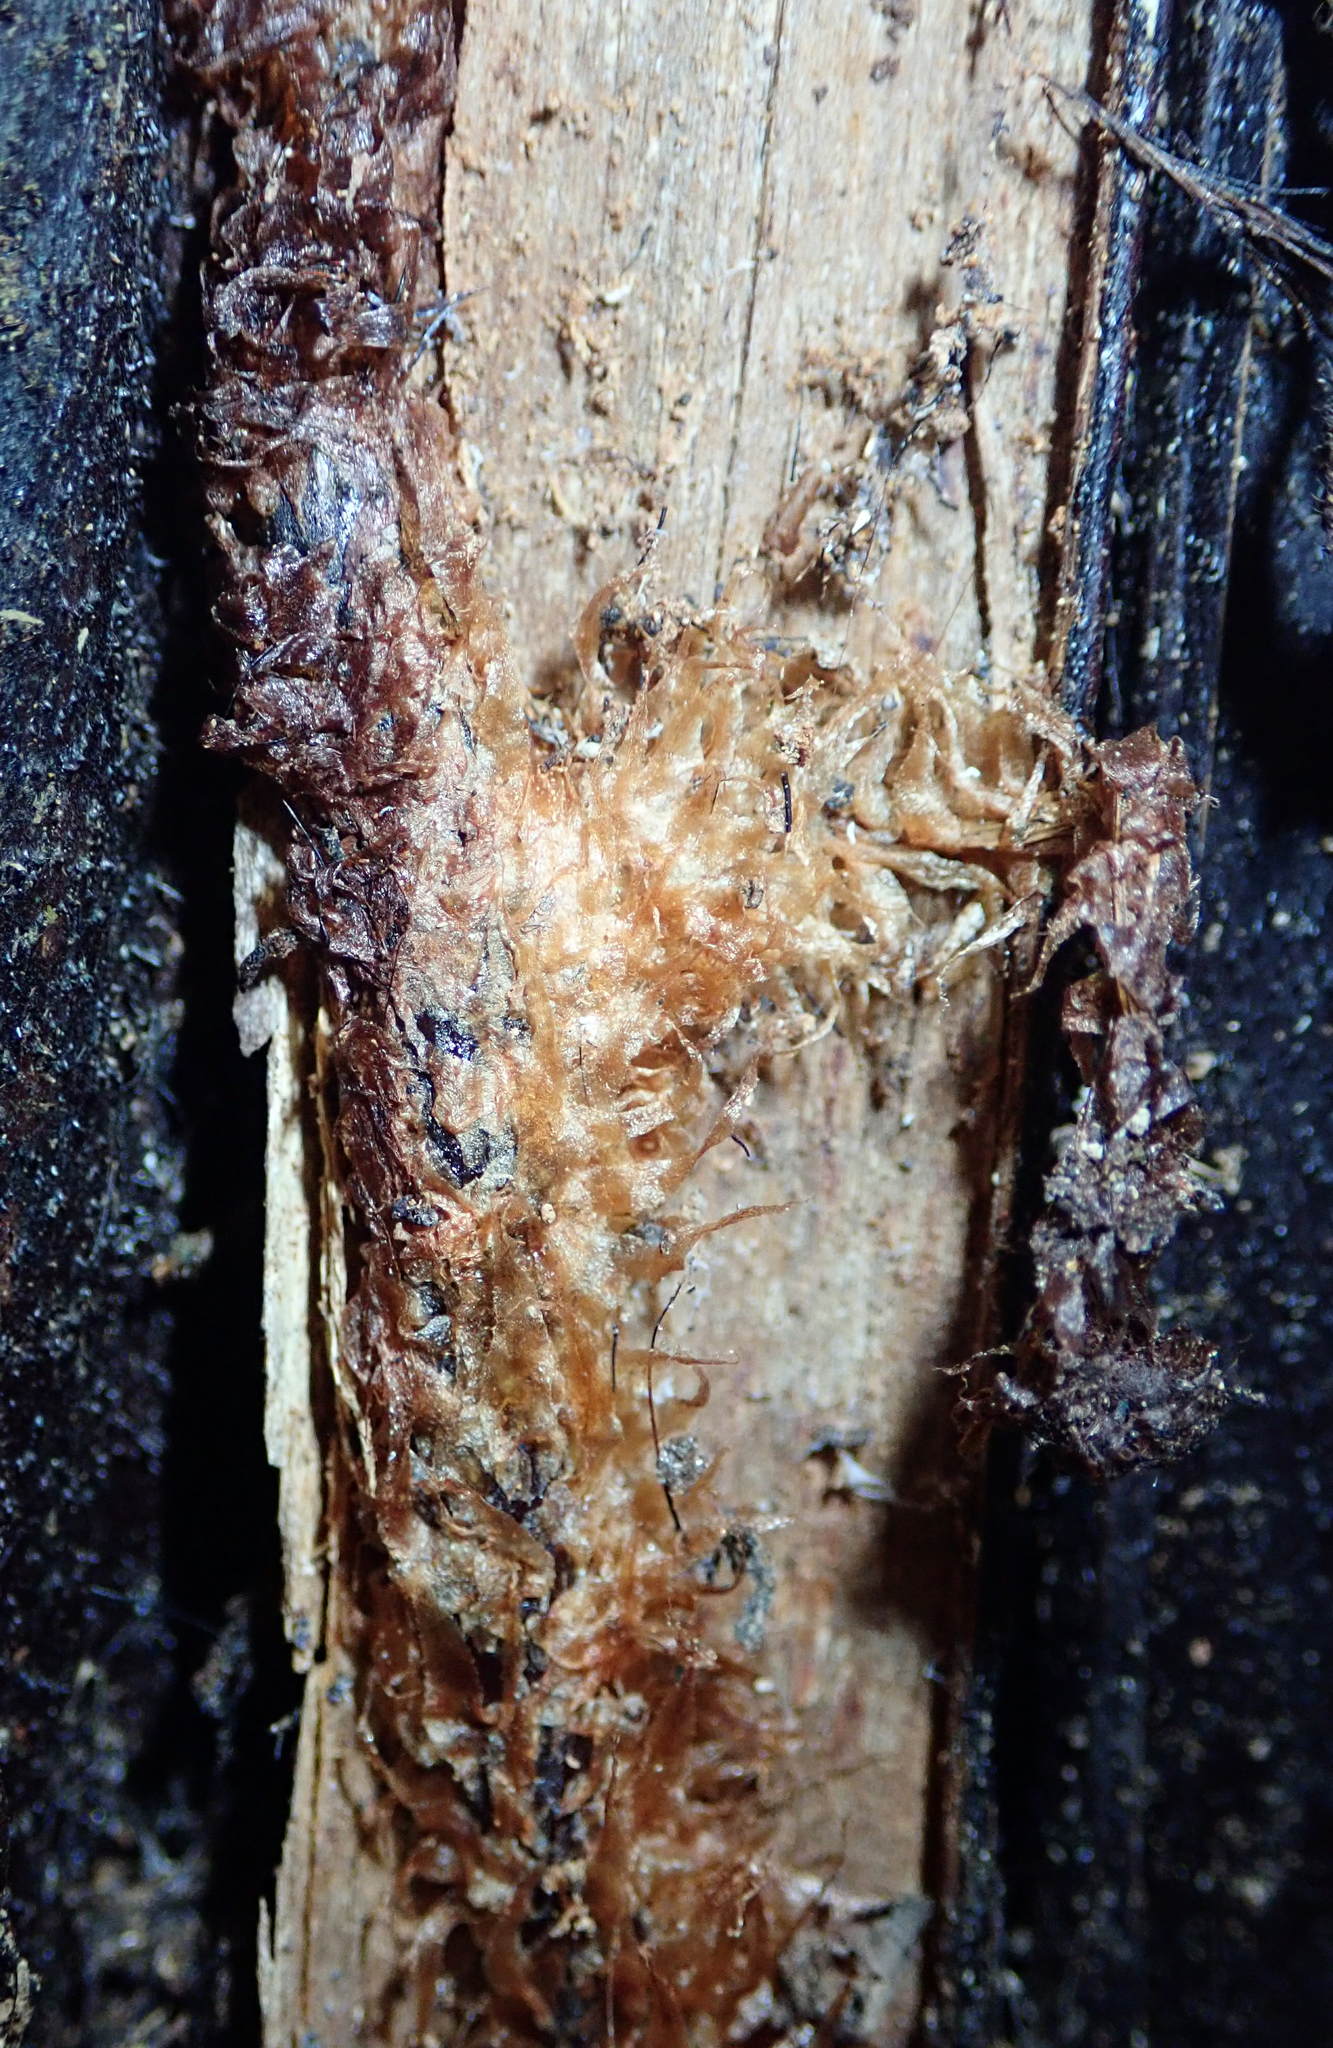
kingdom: Plantae
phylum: Tracheophyta
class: Polypodiopsida
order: Polypodiales
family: Dryopteridaceae
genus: Rumohra
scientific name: Rumohra adiantiformis
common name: Leather fern
